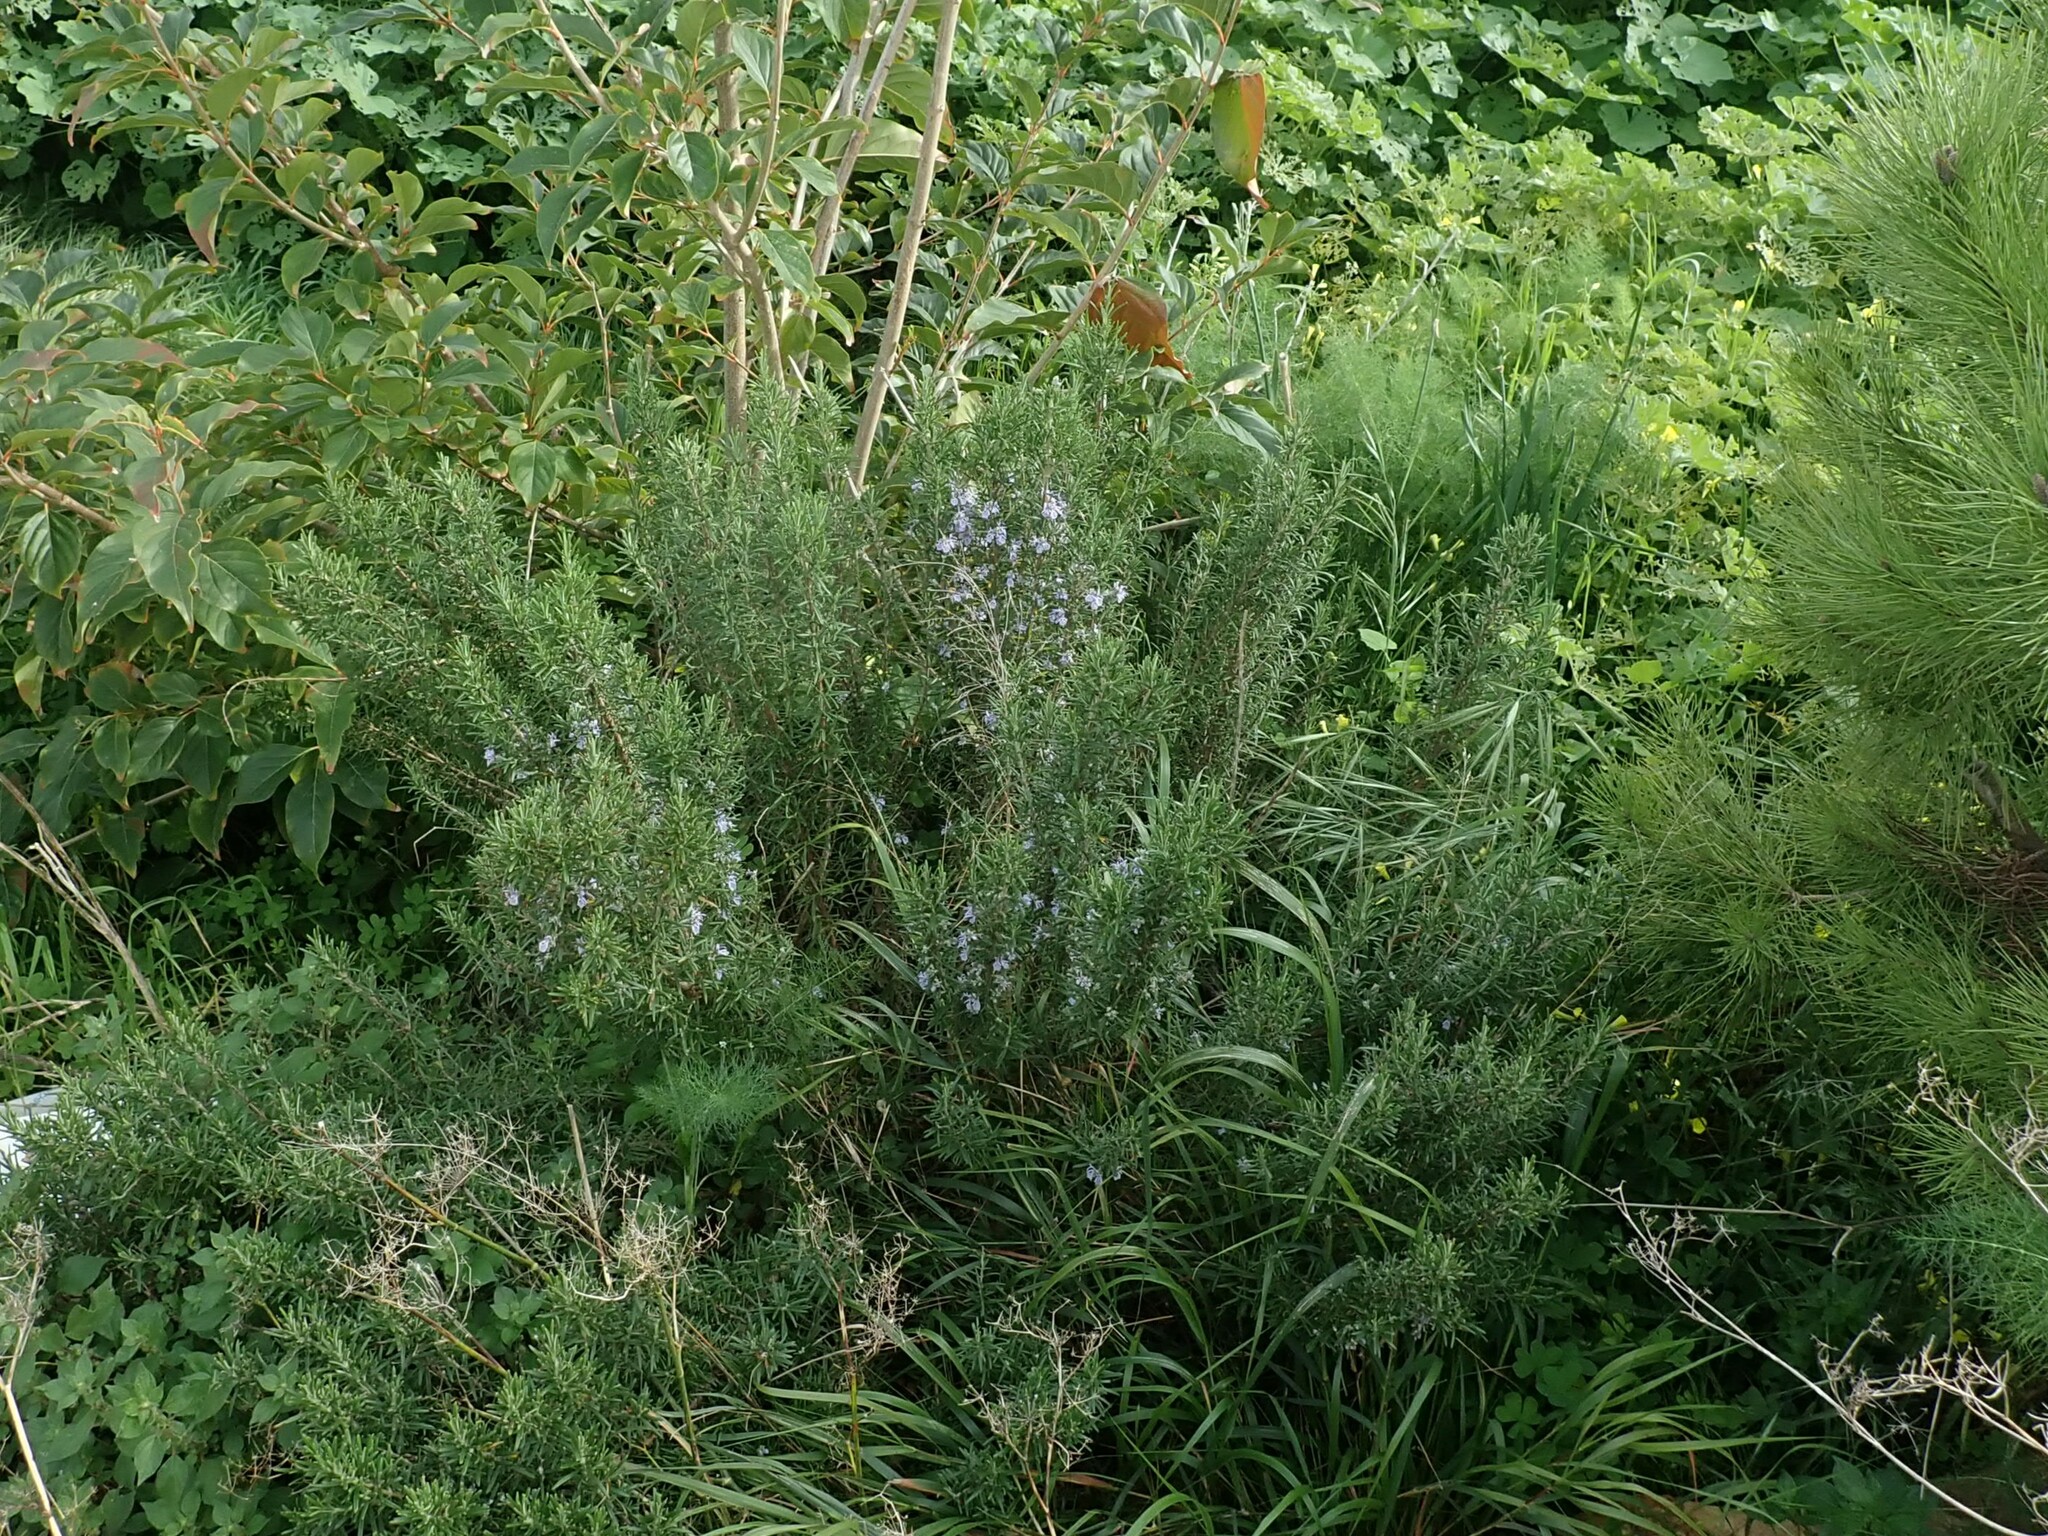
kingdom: Plantae
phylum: Tracheophyta
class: Magnoliopsida
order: Lamiales
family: Lamiaceae
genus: Salvia
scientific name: Salvia rosmarinus
